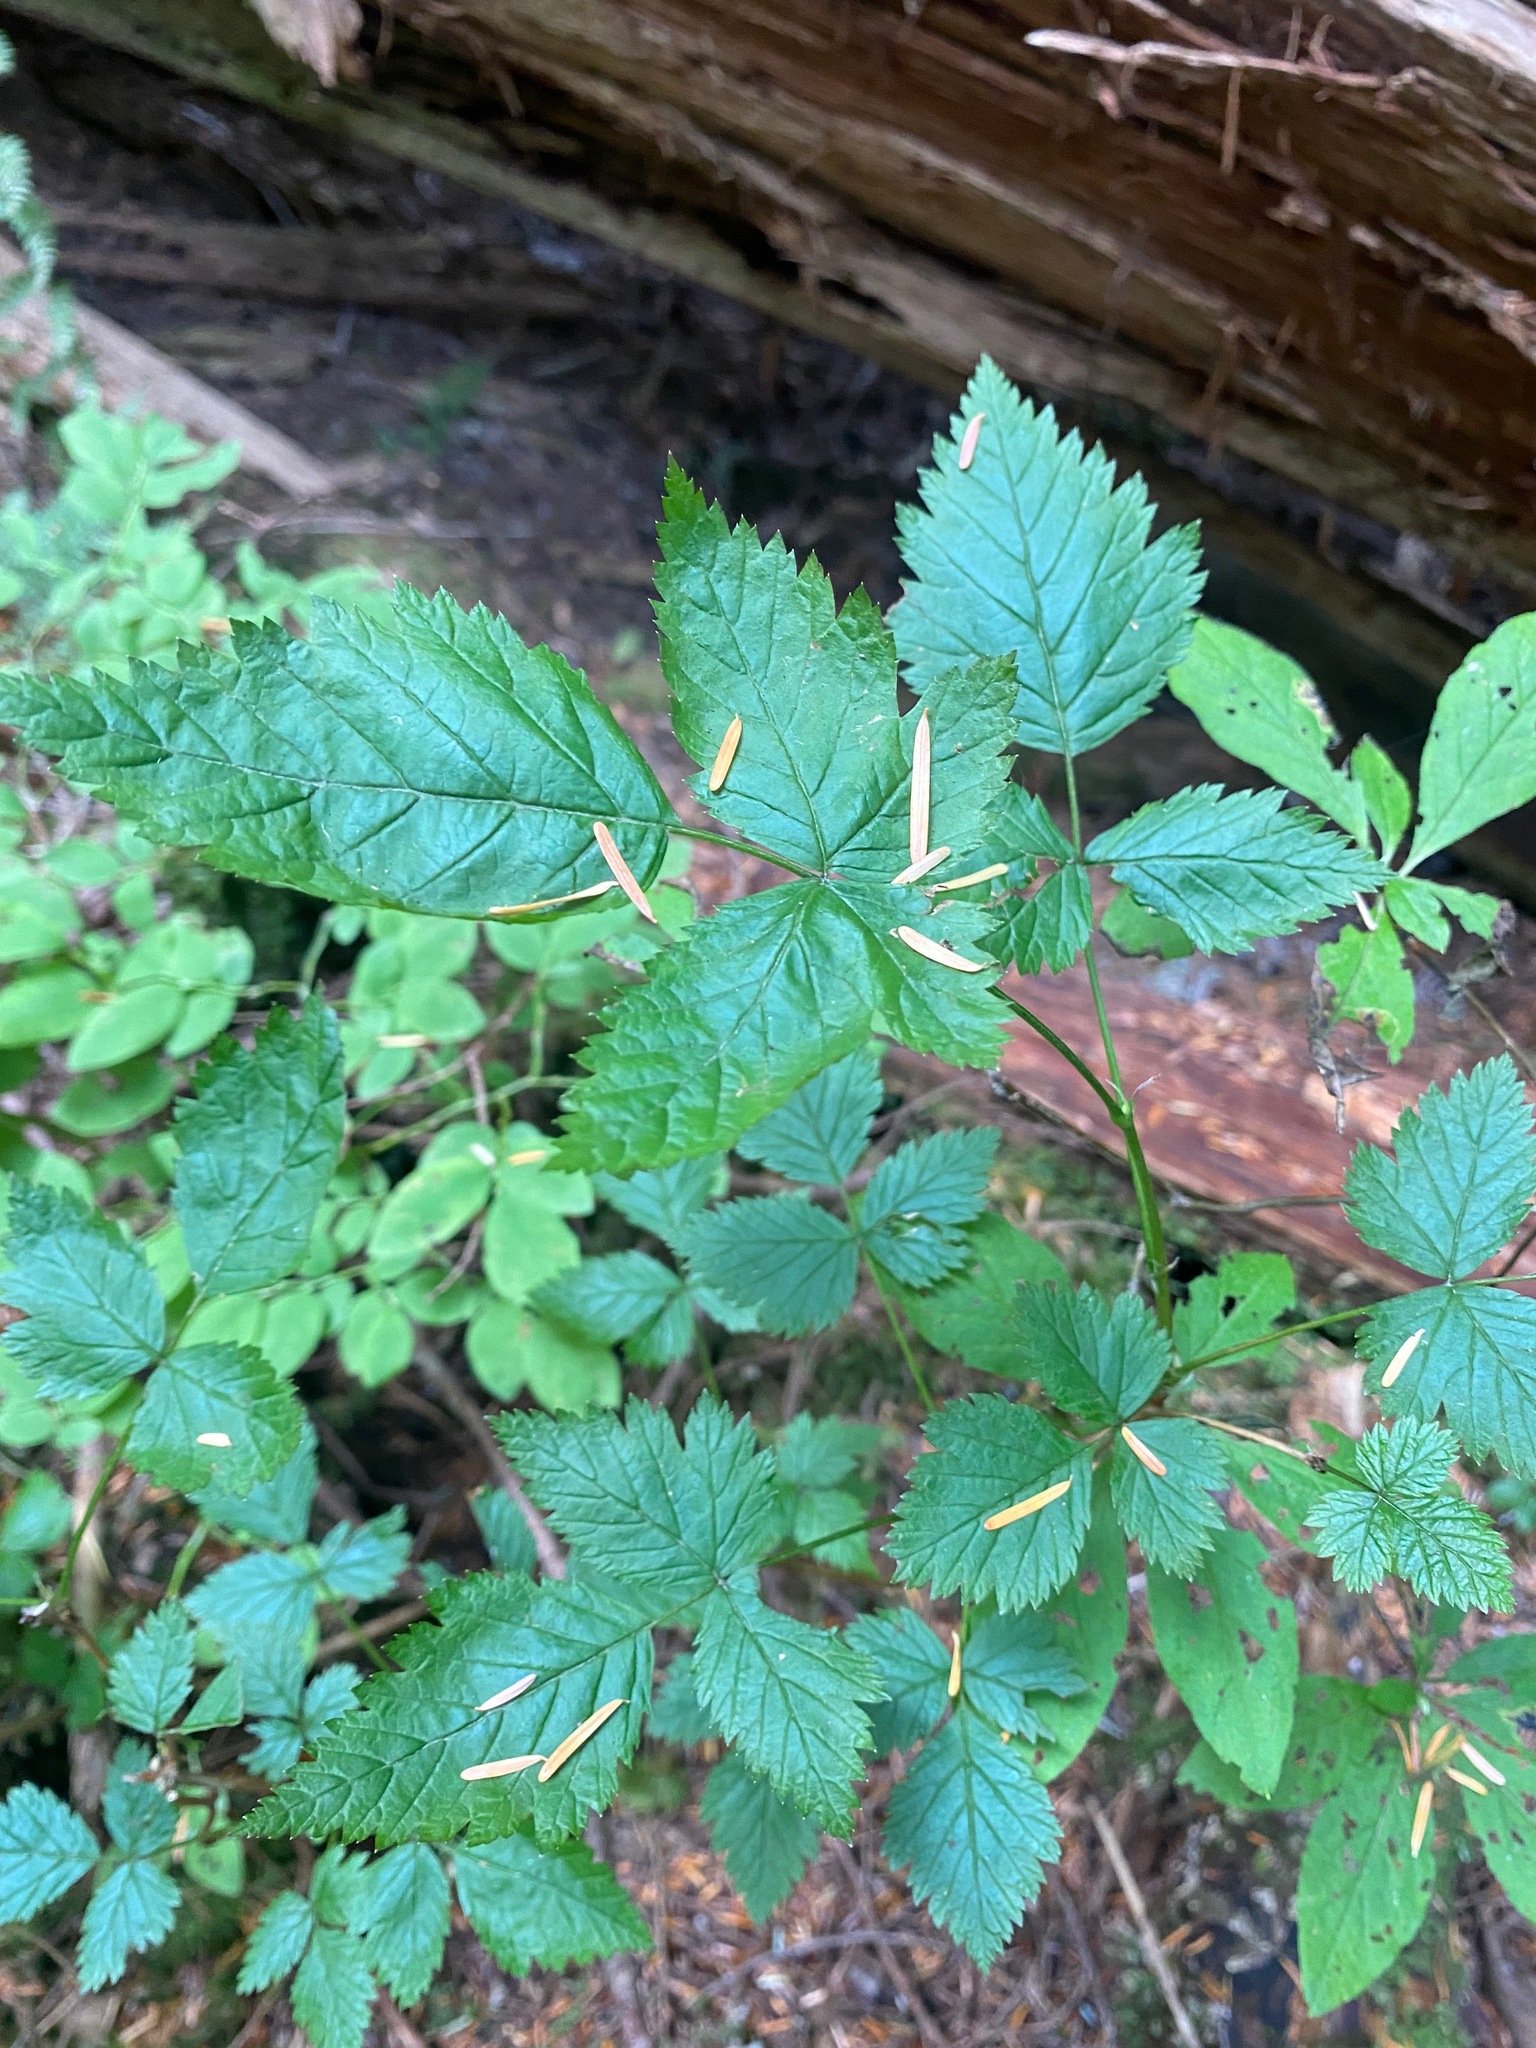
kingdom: Plantae
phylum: Tracheophyta
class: Magnoliopsida
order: Rosales
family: Rosaceae
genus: Rubus
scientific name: Rubus spectabilis
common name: Salmonberry
